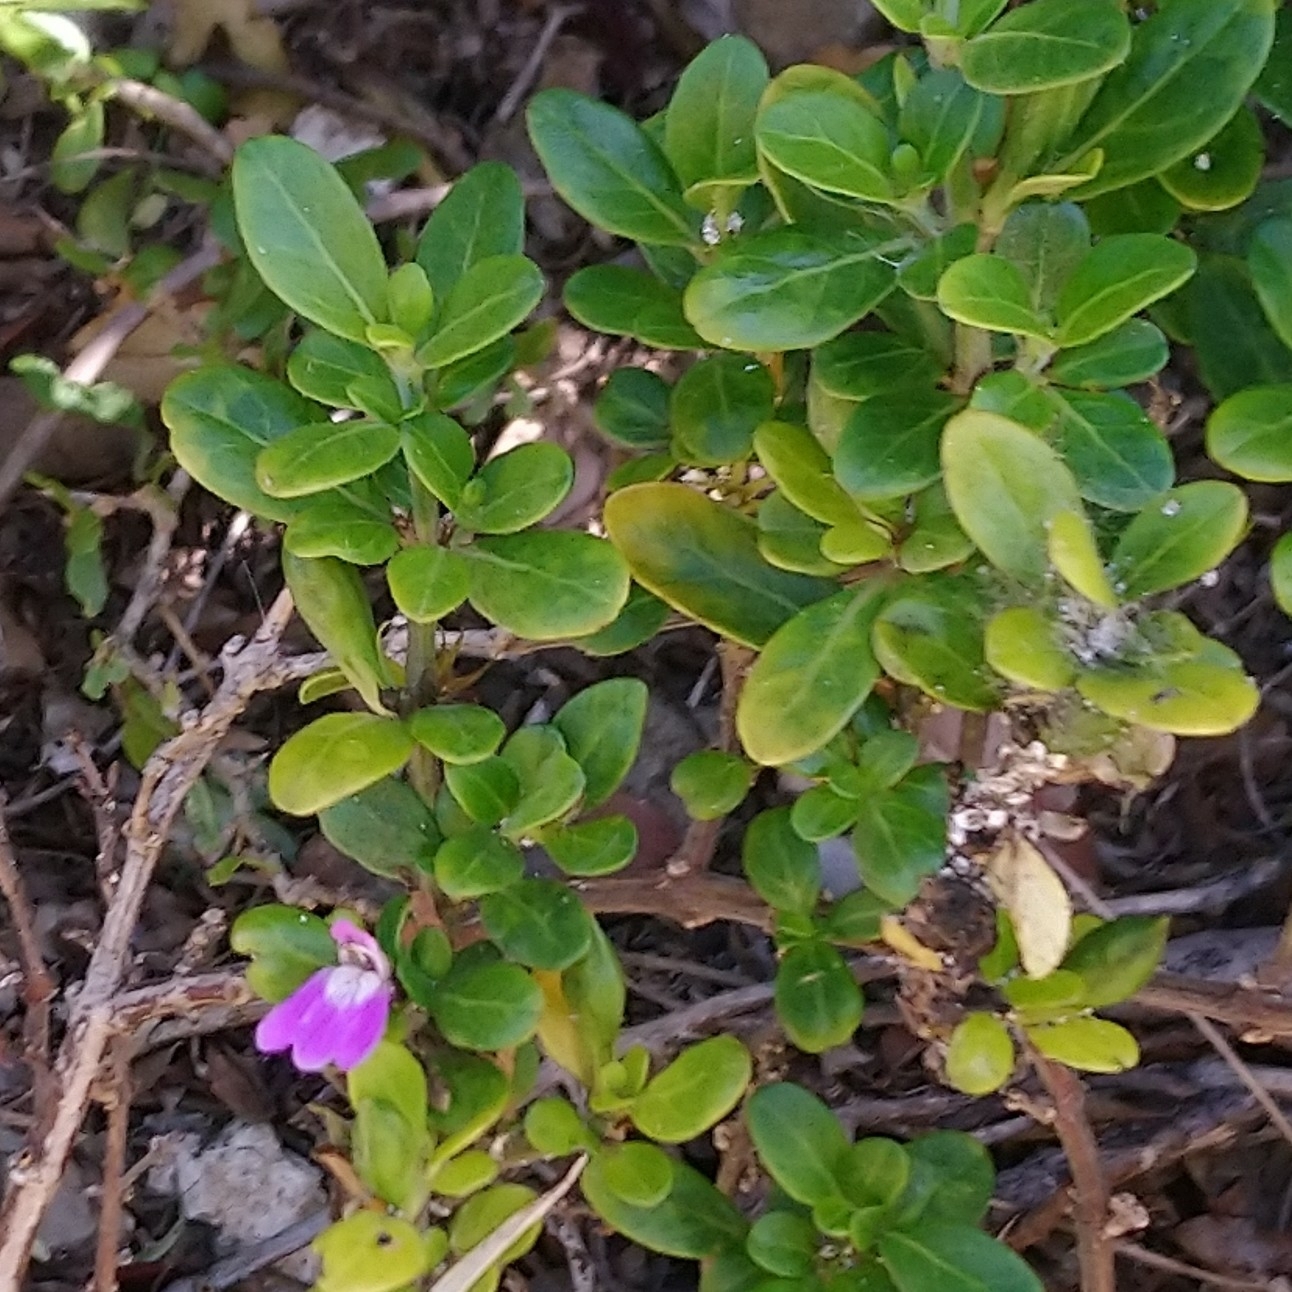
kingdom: Plantae
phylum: Tracheophyta
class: Magnoliopsida
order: Lamiales
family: Acanthaceae
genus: Justicia
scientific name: Justicia capensis
